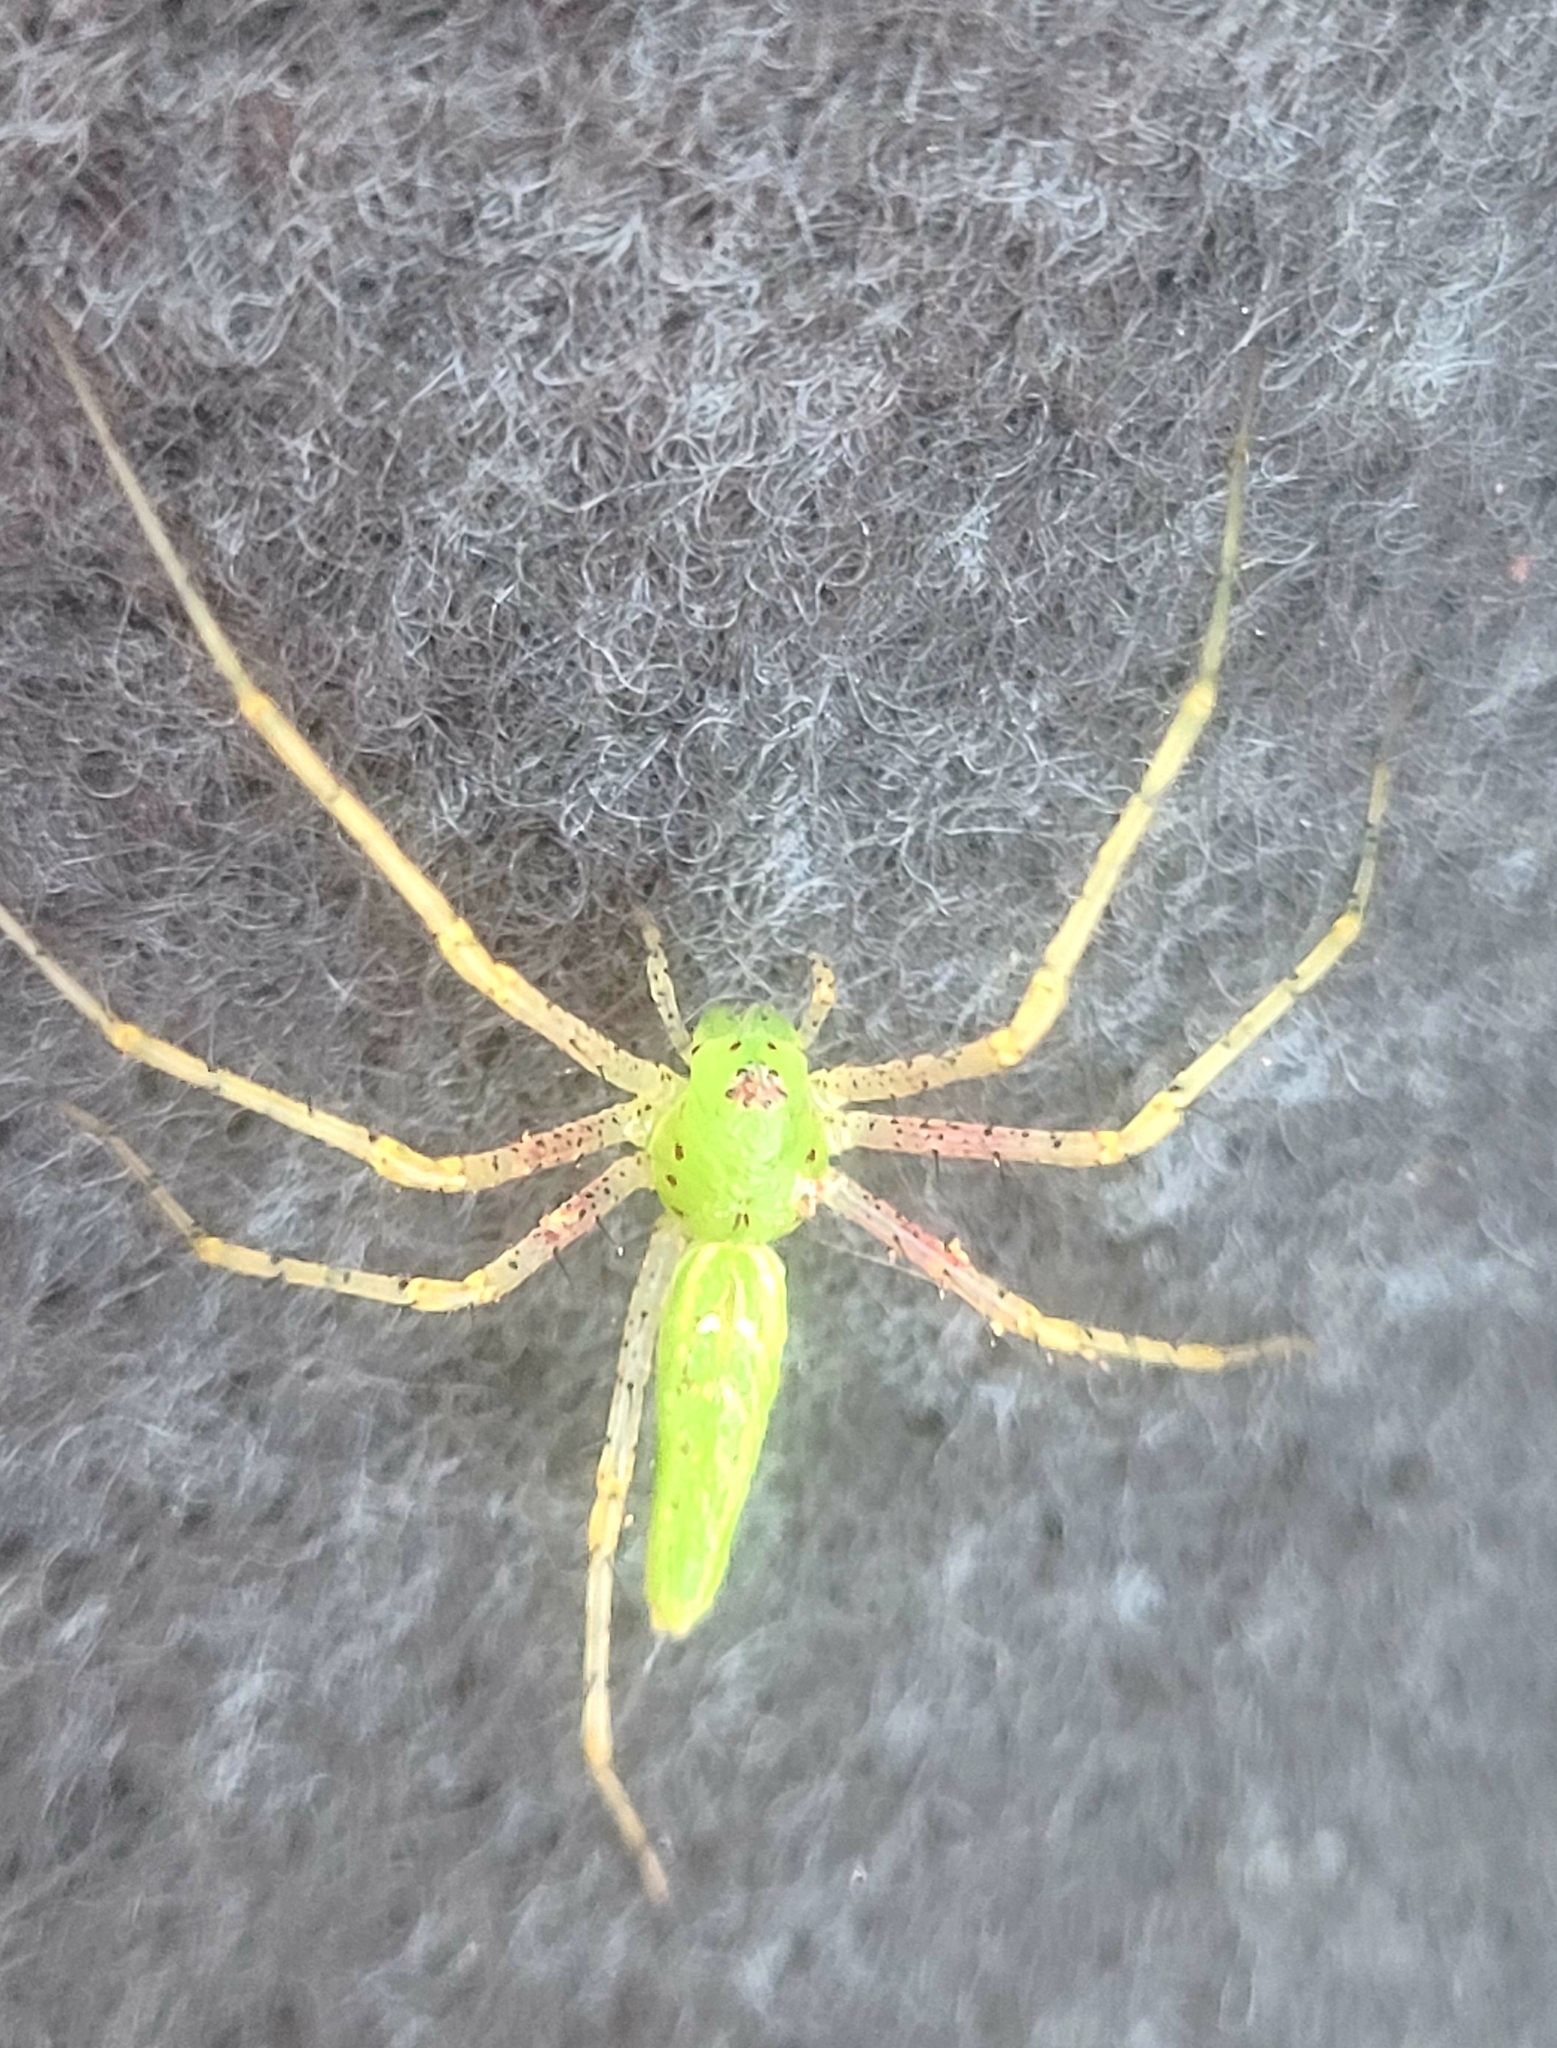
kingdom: Animalia
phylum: Arthropoda
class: Arachnida
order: Araneae
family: Oxyopidae
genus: Peucetia
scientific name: Peucetia viridans
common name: Lynx spiders
